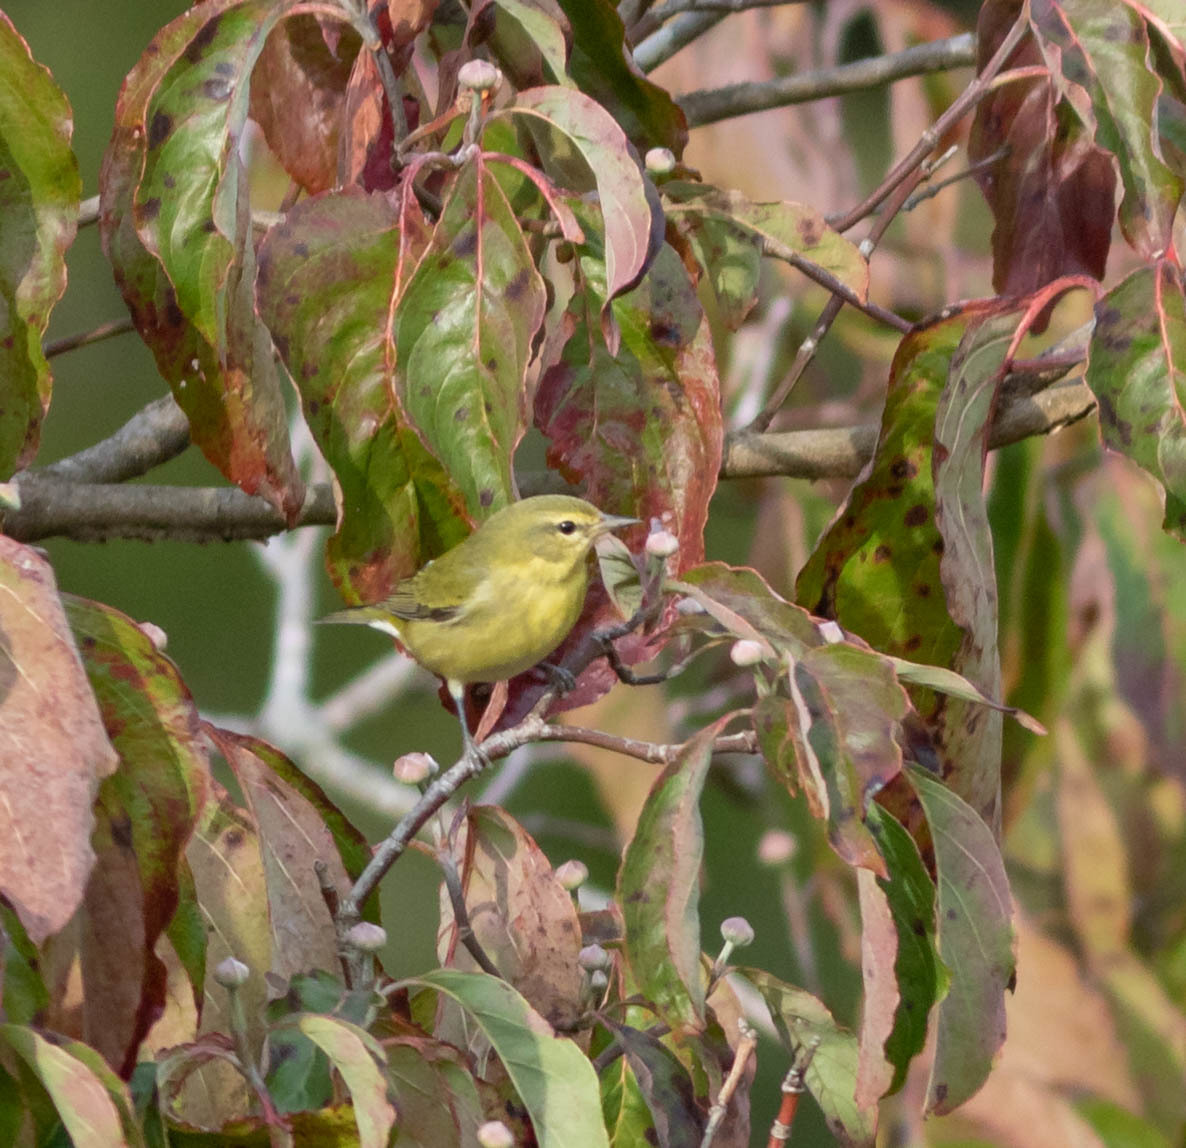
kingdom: Animalia
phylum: Chordata
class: Aves
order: Passeriformes
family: Parulidae
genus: Leiothlypis
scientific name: Leiothlypis peregrina
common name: Tennessee warbler
